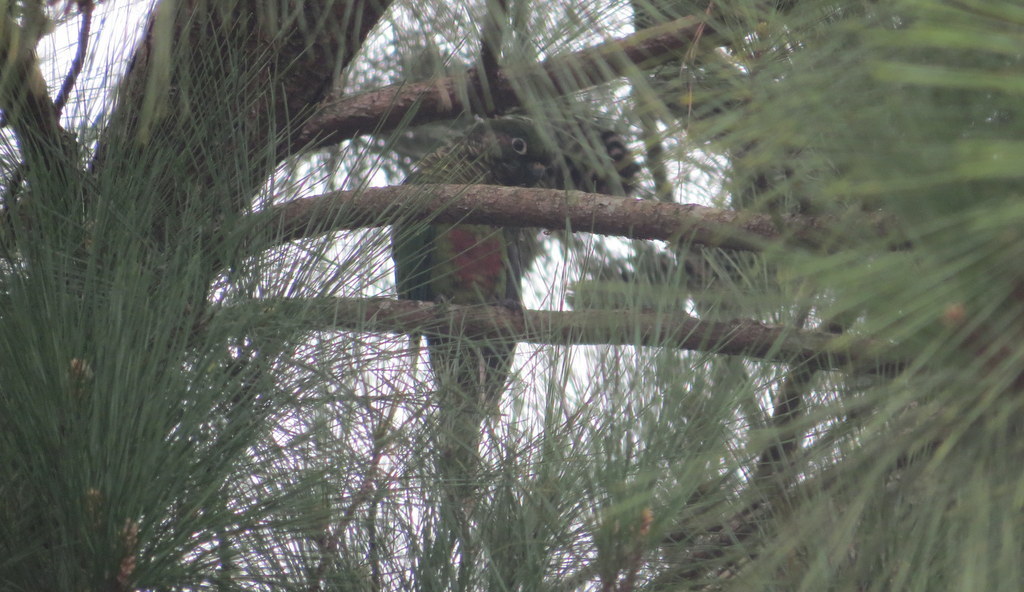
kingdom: Animalia
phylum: Chordata
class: Aves
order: Psittaciformes
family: Psittacidae
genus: Pyrrhura
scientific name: Pyrrhura frontalis
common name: Maroon-bellied parakeet
